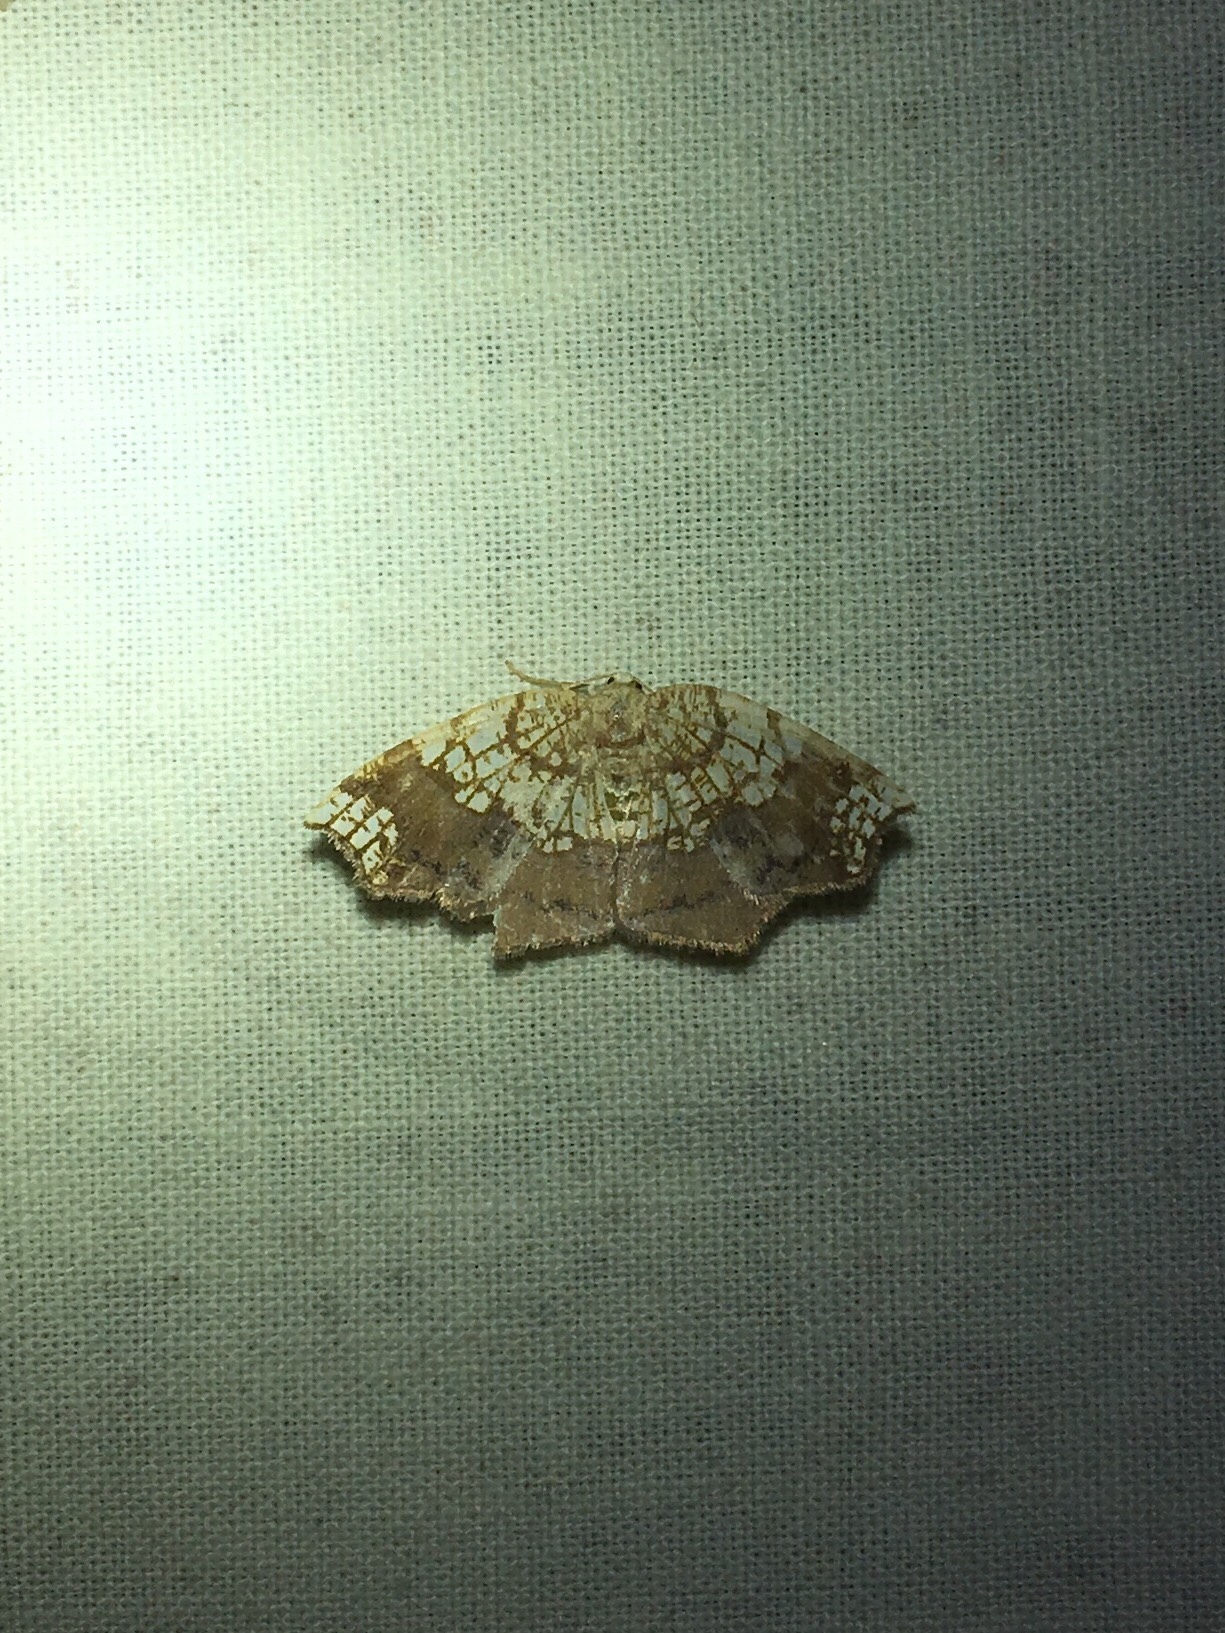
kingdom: Animalia
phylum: Arthropoda
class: Insecta
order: Lepidoptera
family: Geometridae
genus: Nematocampa
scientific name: Nematocampa resistaria
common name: Horned spanworm moth
